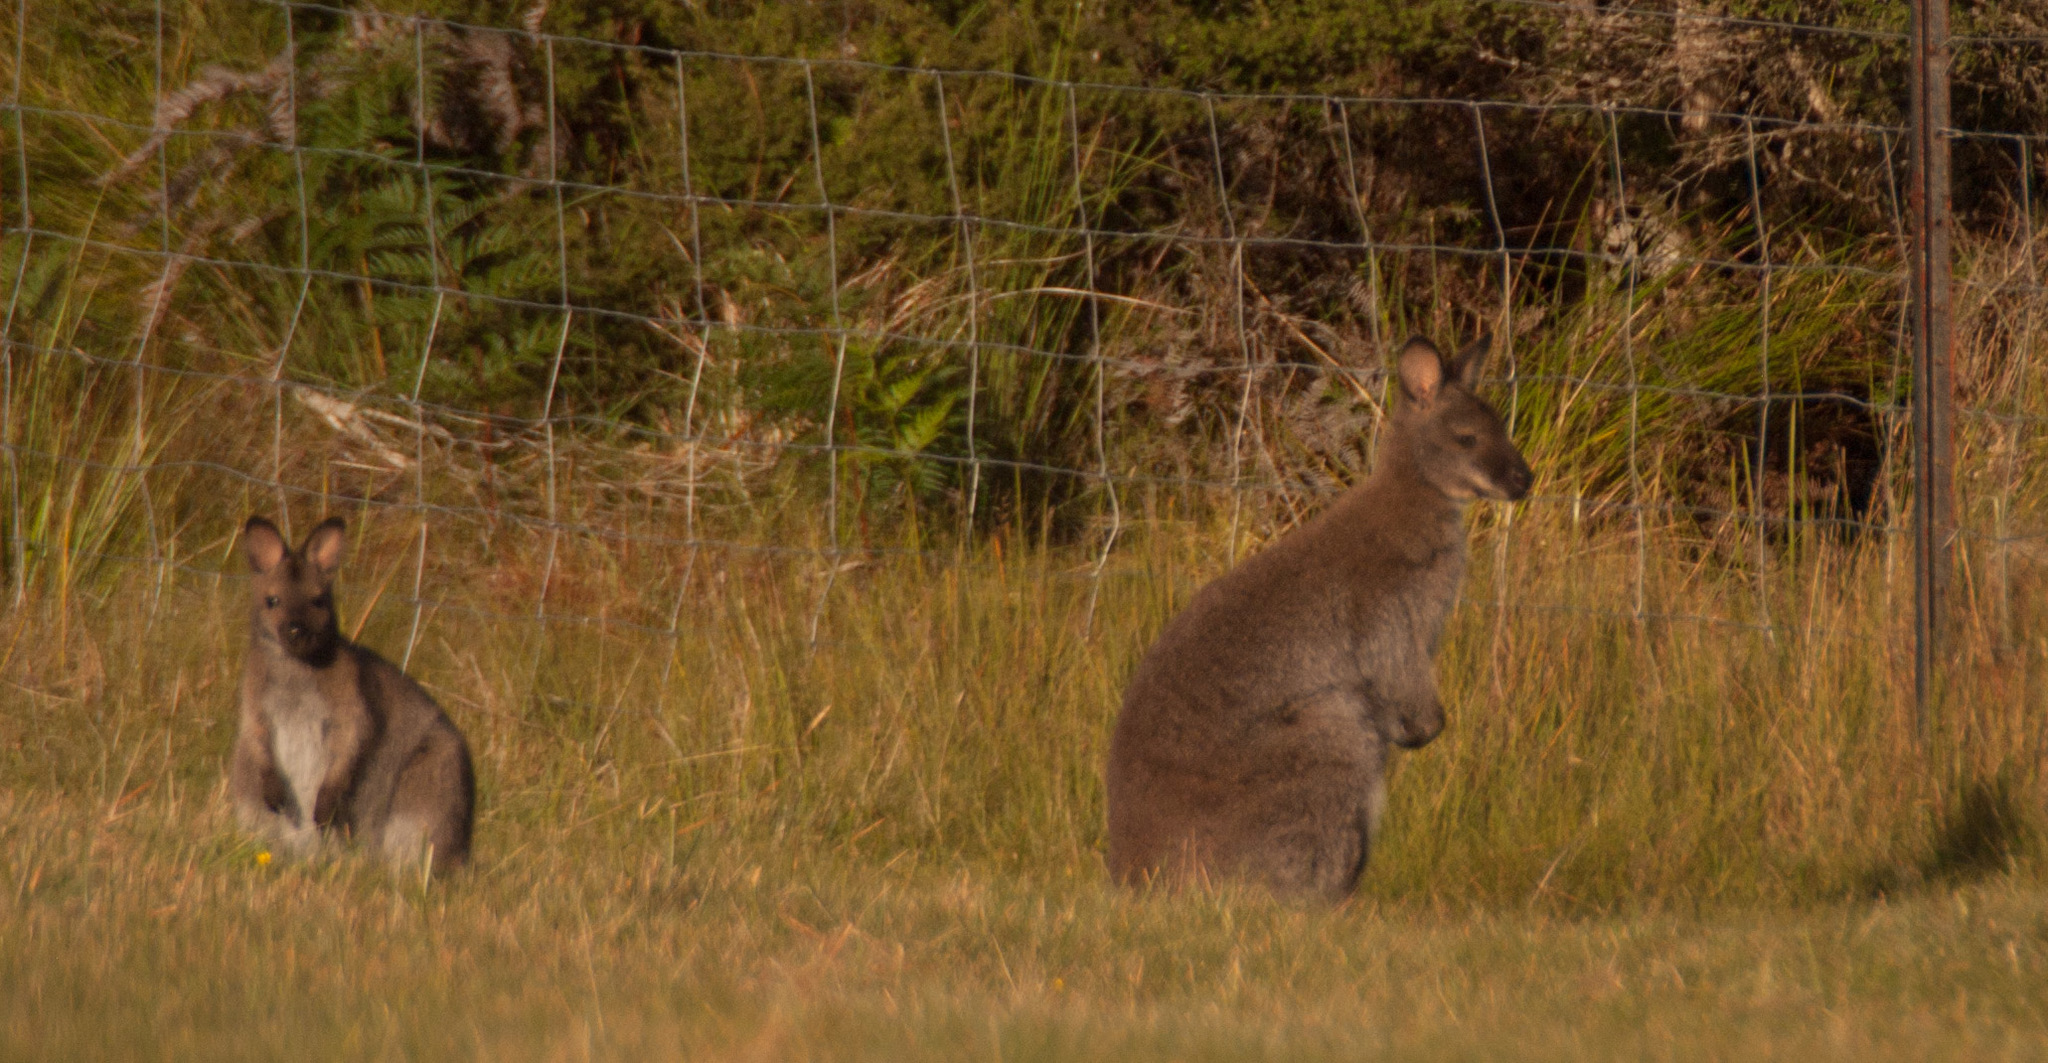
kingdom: Animalia
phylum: Chordata
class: Mammalia
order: Diprotodontia
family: Macropodidae
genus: Notamacropus
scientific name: Notamacropus rufogriseus
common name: Red-necked wallaby
